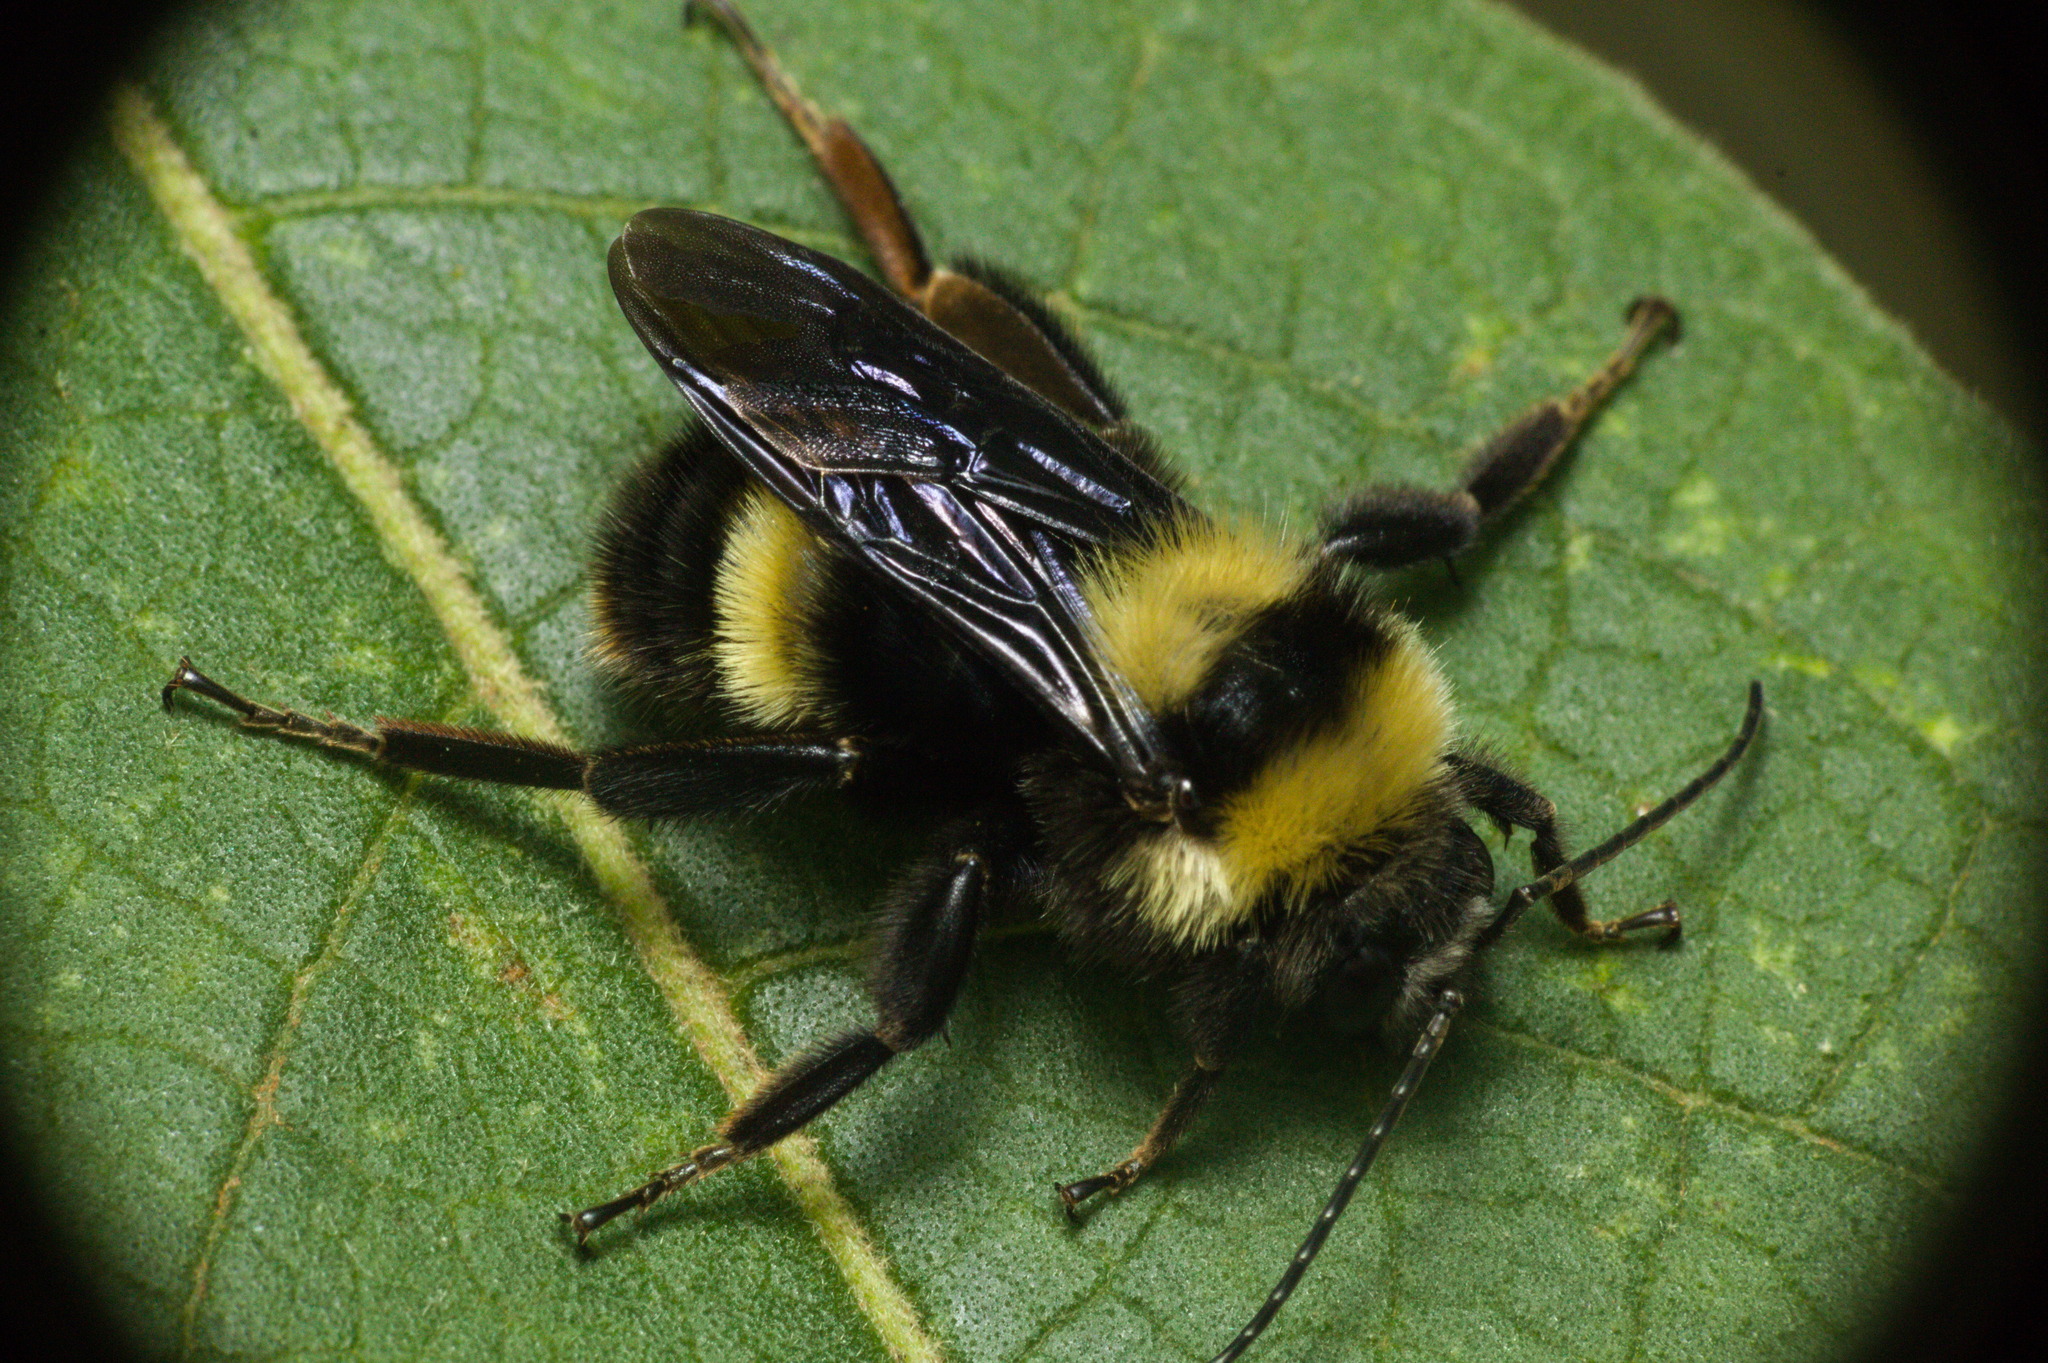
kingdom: Animalia
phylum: Arthropoda
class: Insecta
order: Hymenoptera
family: Apidae
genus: Bombus
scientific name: Bombus pauloensis
